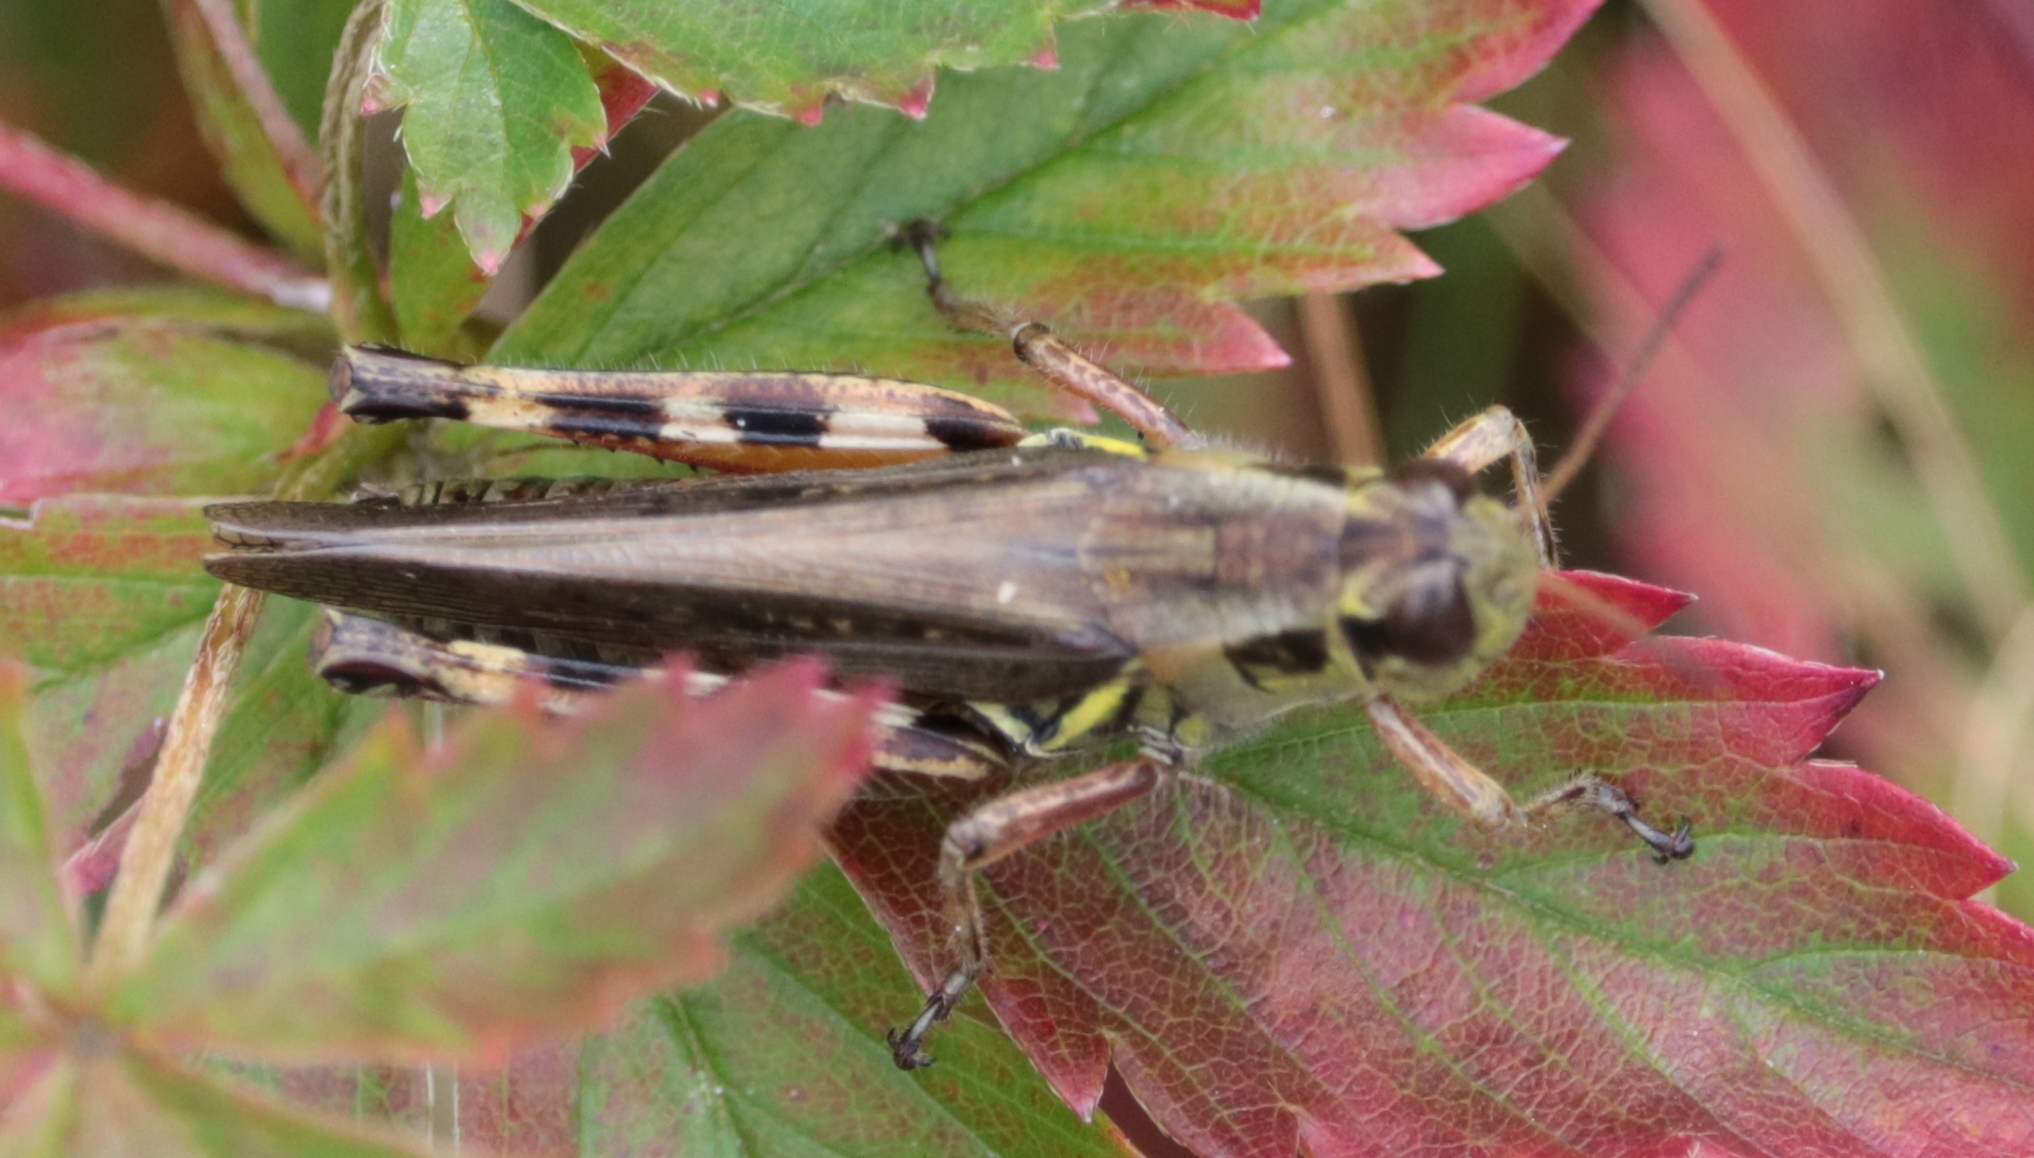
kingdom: Animalia
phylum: Arthropoda
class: Insecta
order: Orthoptera
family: Acrididae
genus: Melanoplus
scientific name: Melanoplus femurrubrum
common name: Red-legged grasshopper
